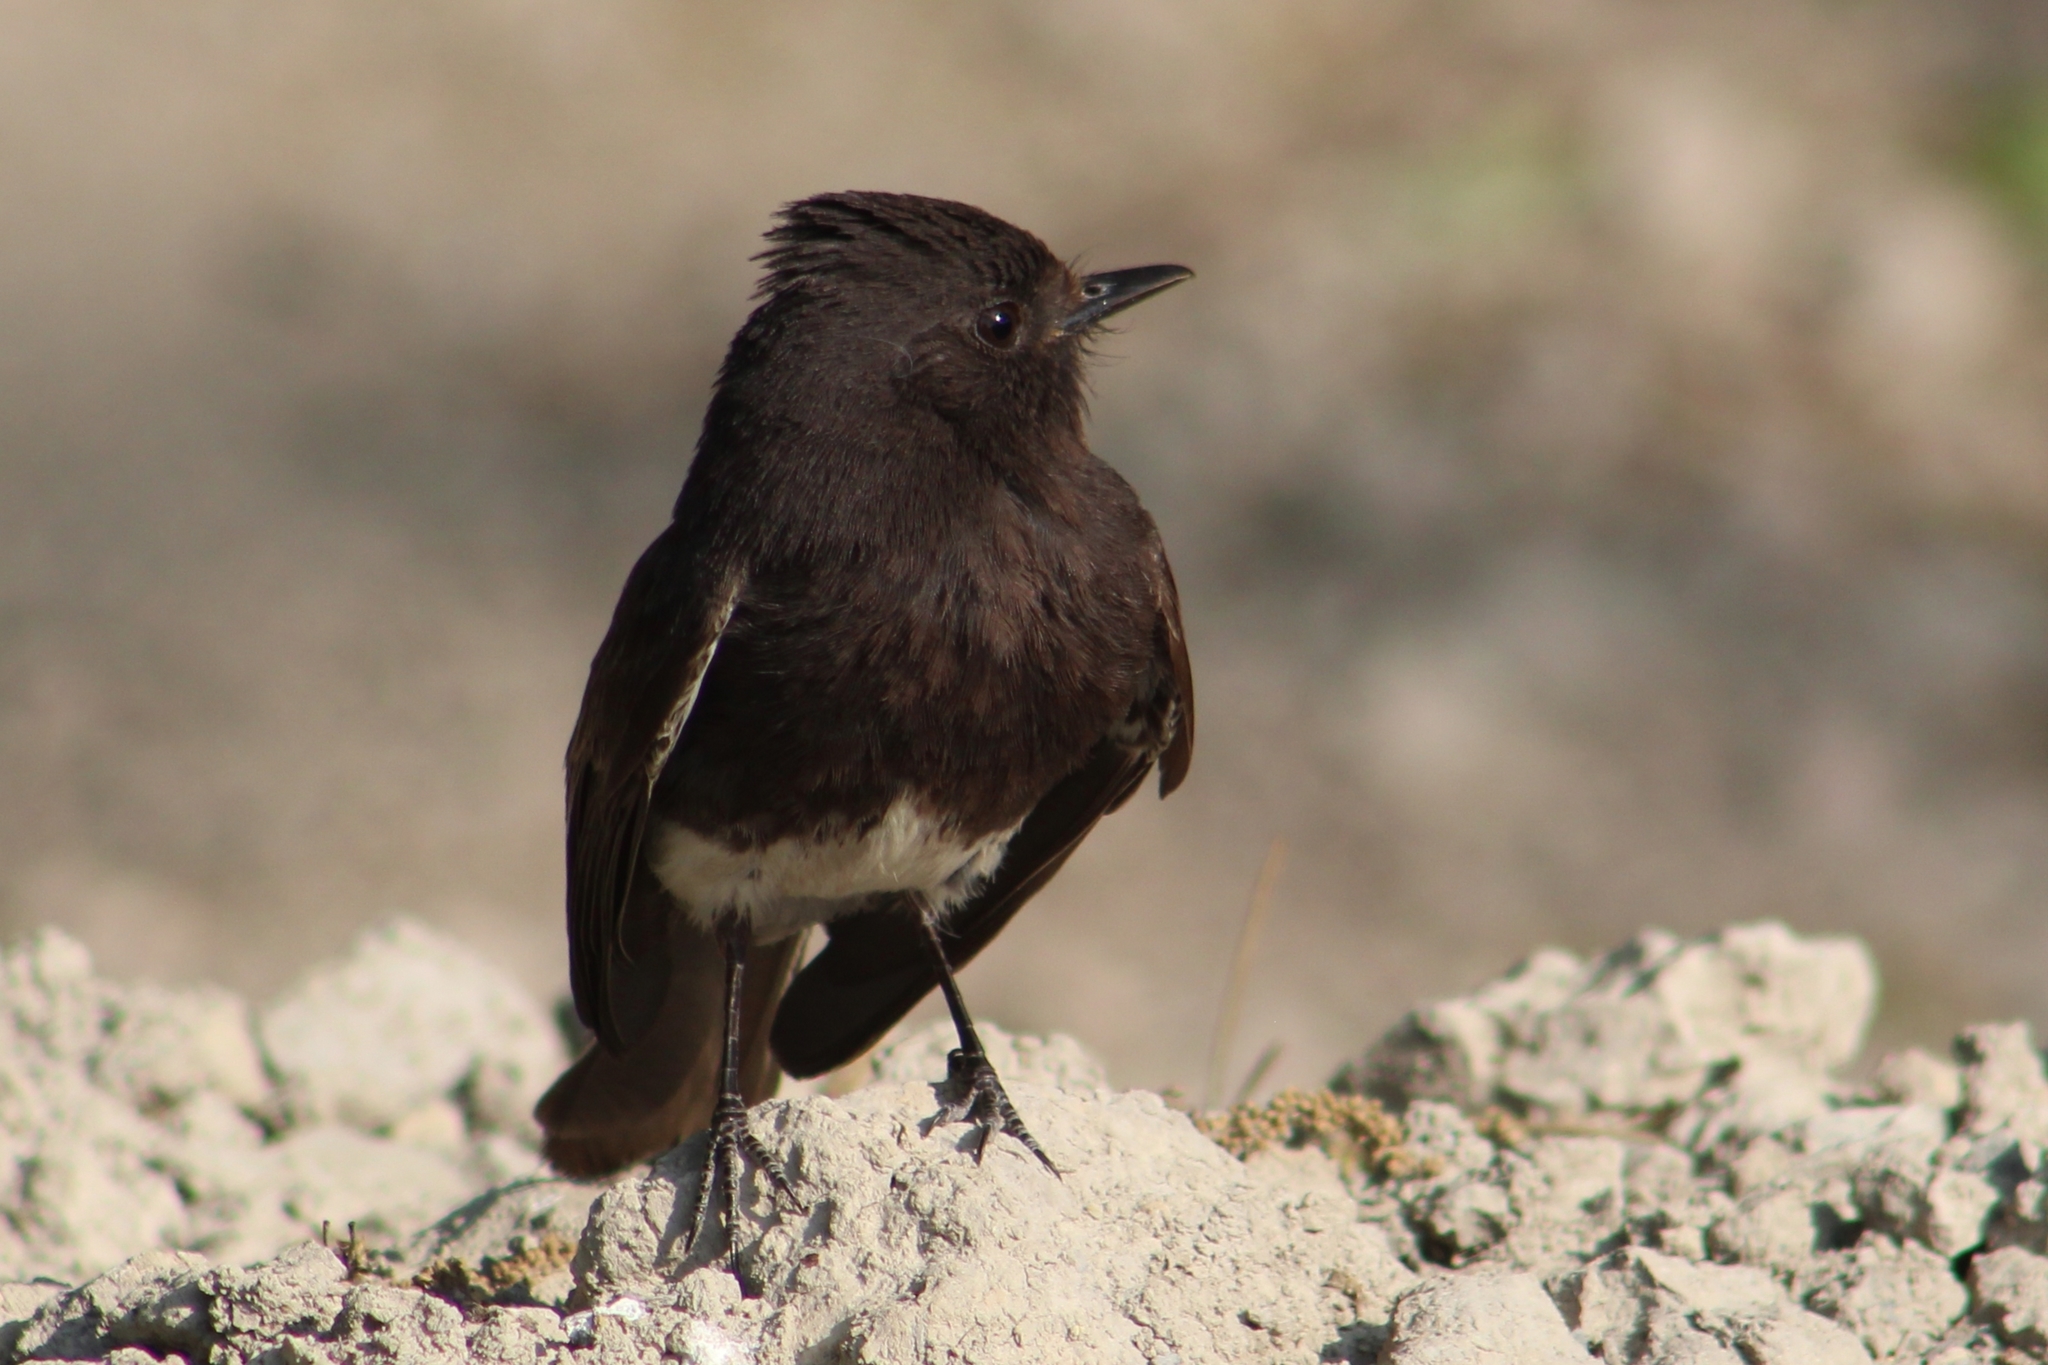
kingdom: Animalia
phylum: Chordata
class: Aves
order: Passeriformes
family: Tyrannidae
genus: Sayornis
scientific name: Sayornis nigricans
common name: Black phoebe
